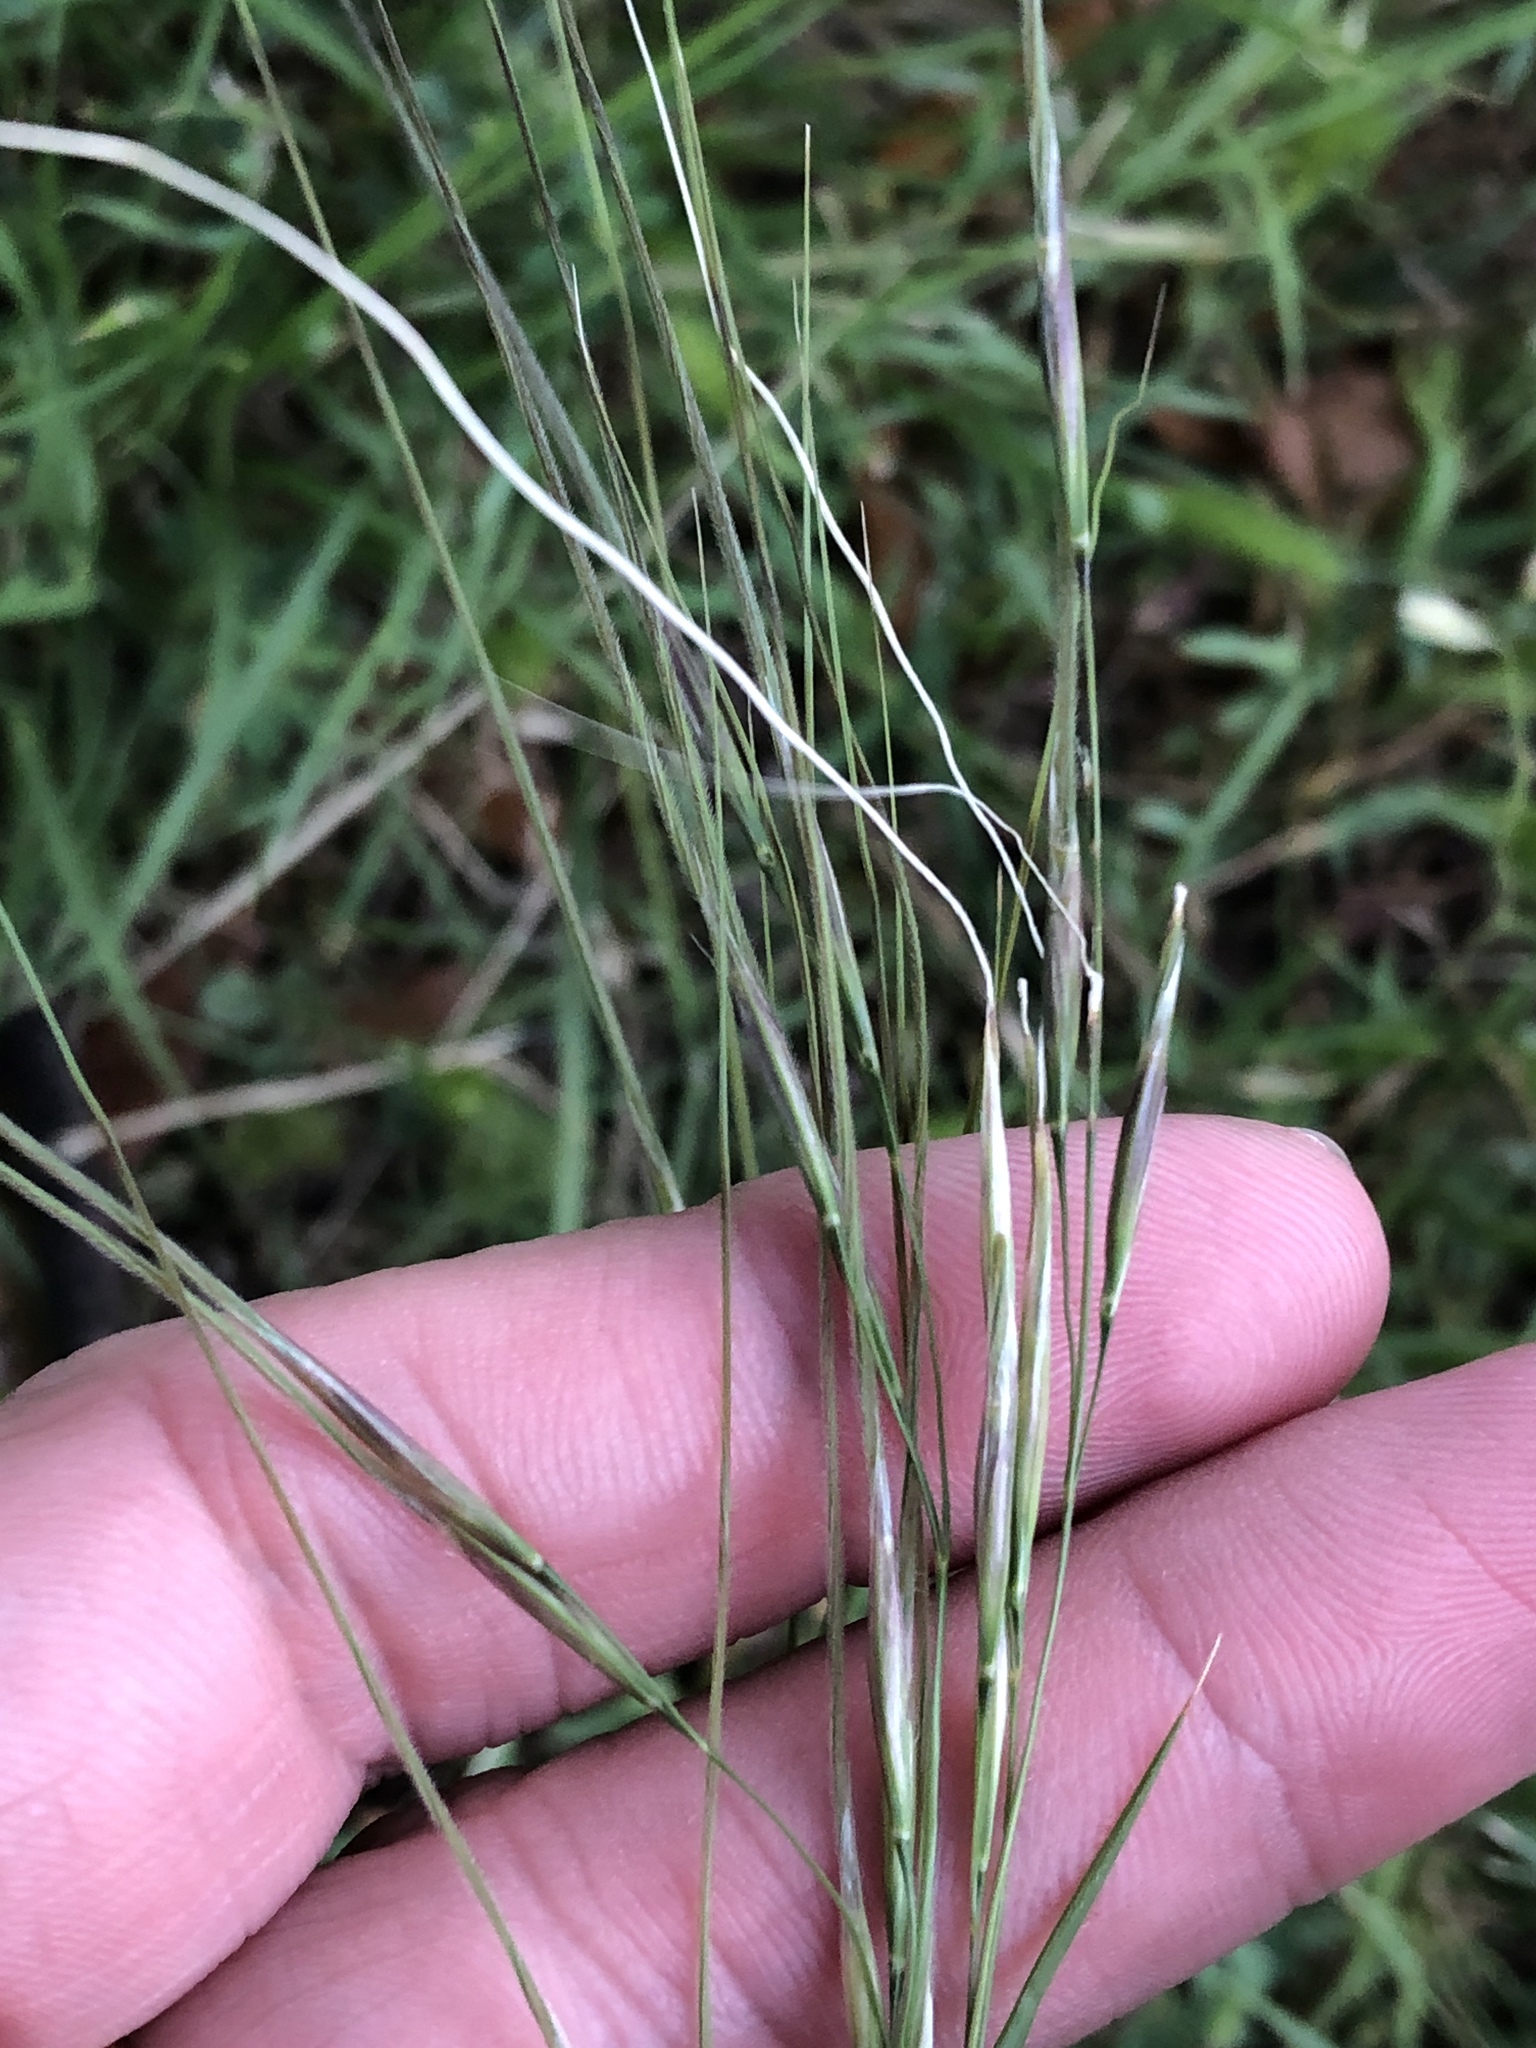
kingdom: Plantae
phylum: Tracheophyta
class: Liliopsida
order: Poales
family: Poaceae
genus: Nassella
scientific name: Nassella leucotricha
